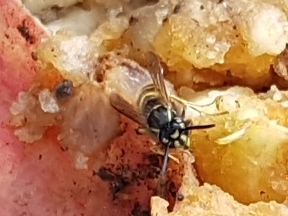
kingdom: Animalia
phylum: Arthropoda
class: Insecta
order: Hymenoptera
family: Vespidae
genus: Vespula
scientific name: Vespula vulgaris
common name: Common wasp
